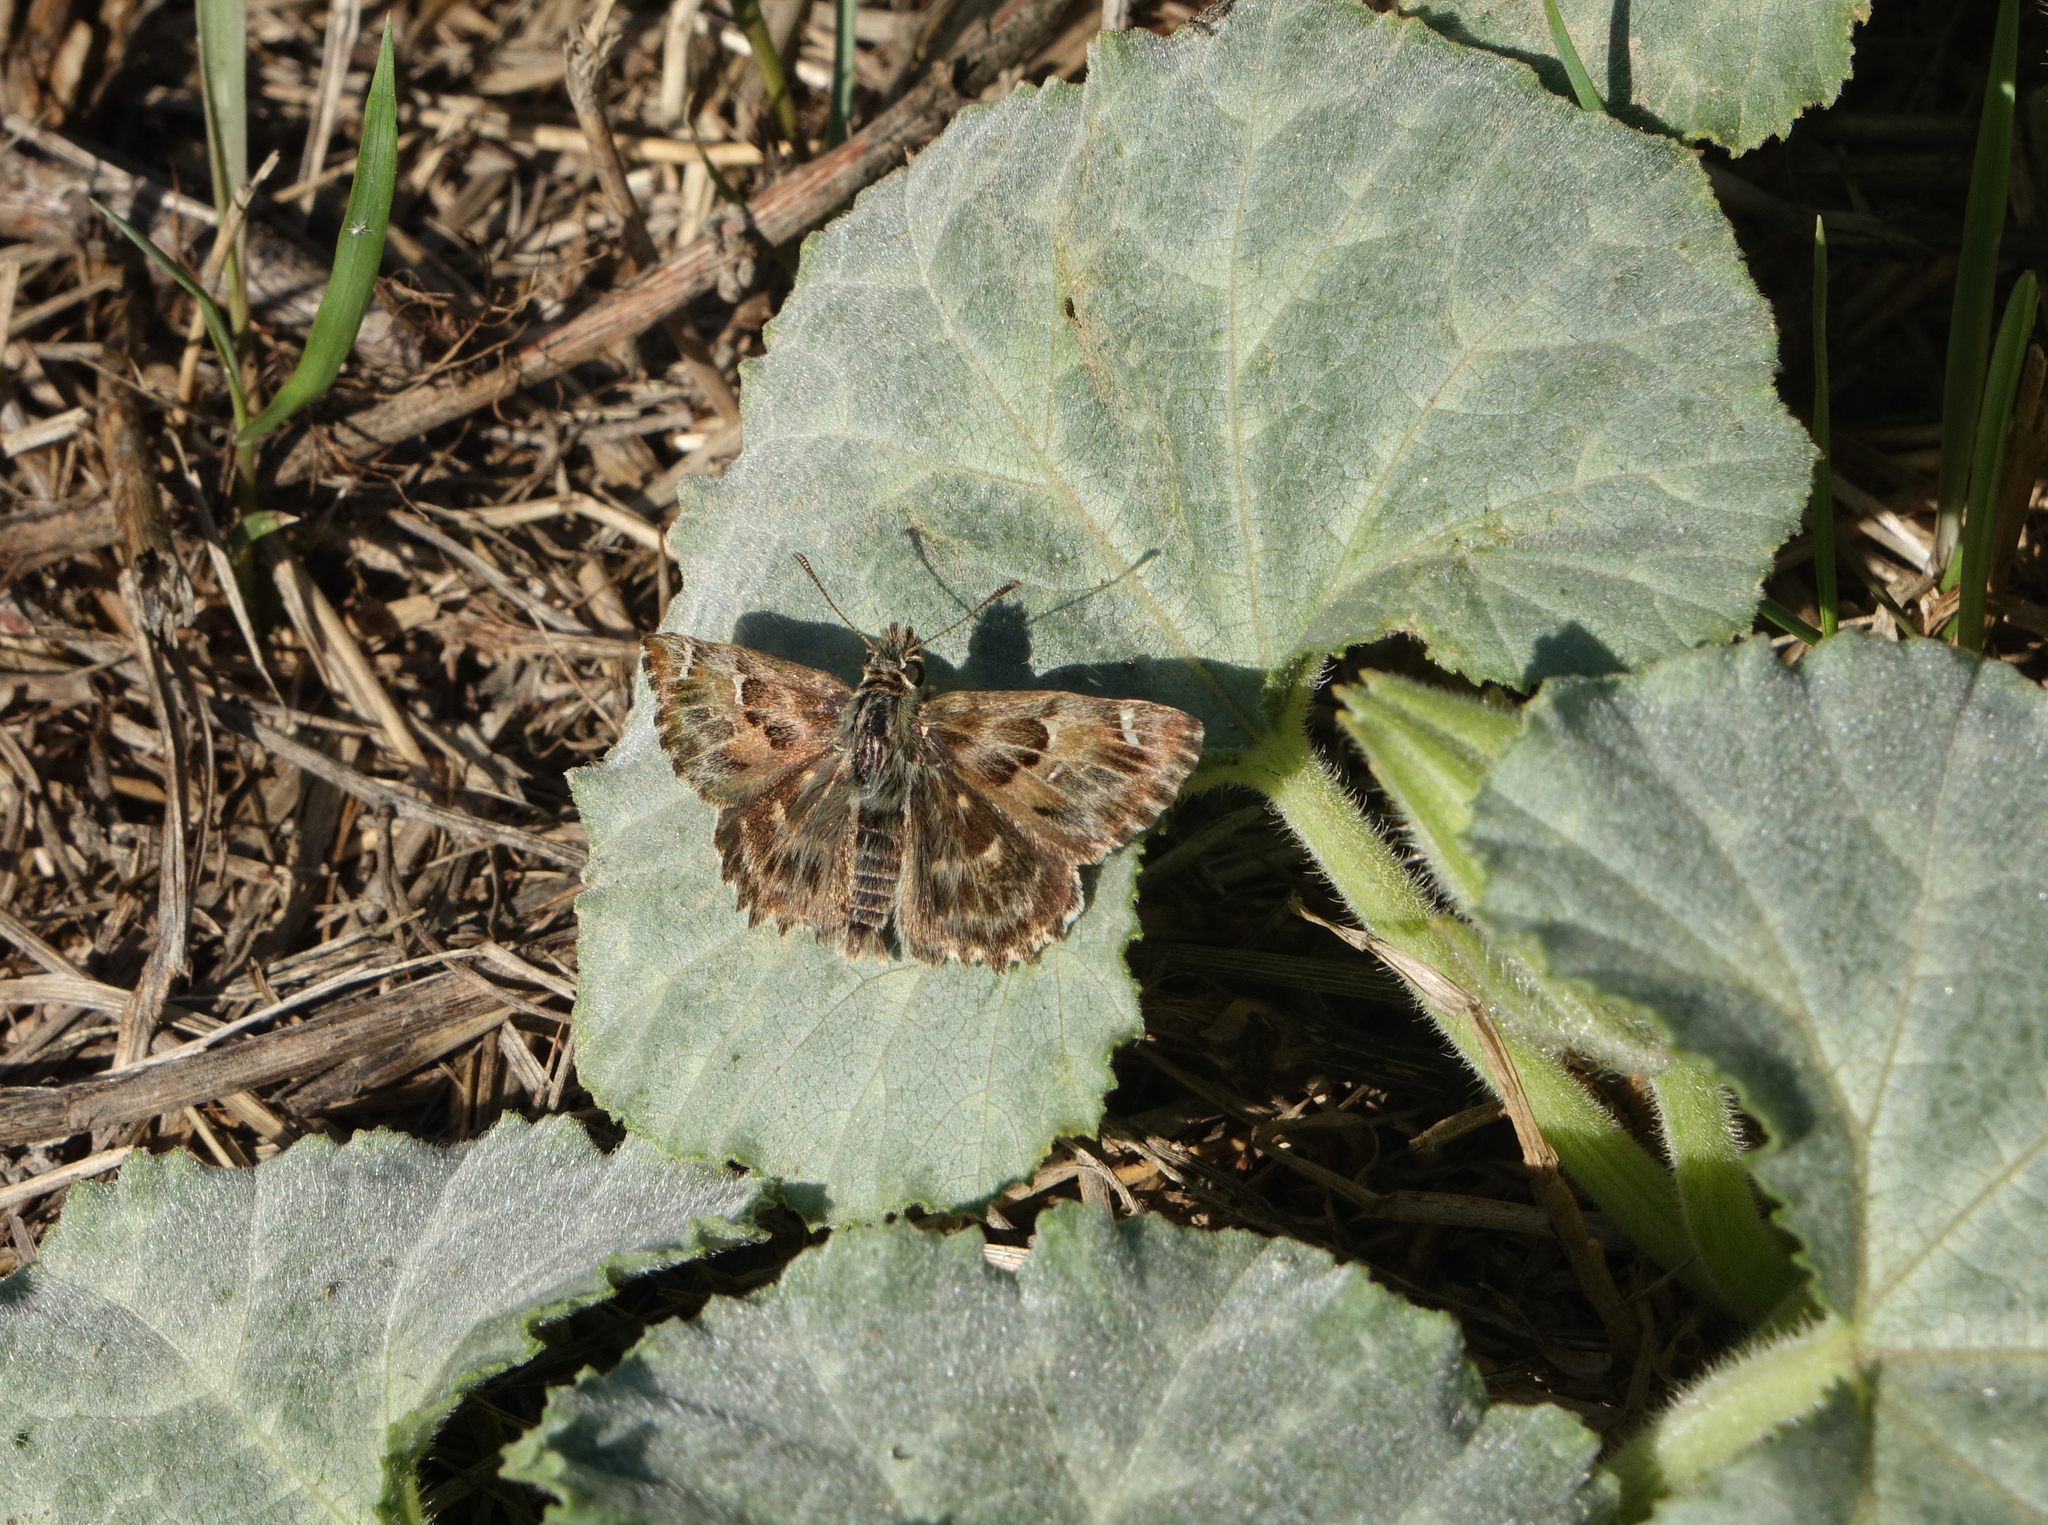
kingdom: Animalia
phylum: Arthropoda
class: Insecta
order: Lepidoptera
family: Hesperiidae
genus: Carcharodus
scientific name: Carcharodus alceae
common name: Mallow skipper
